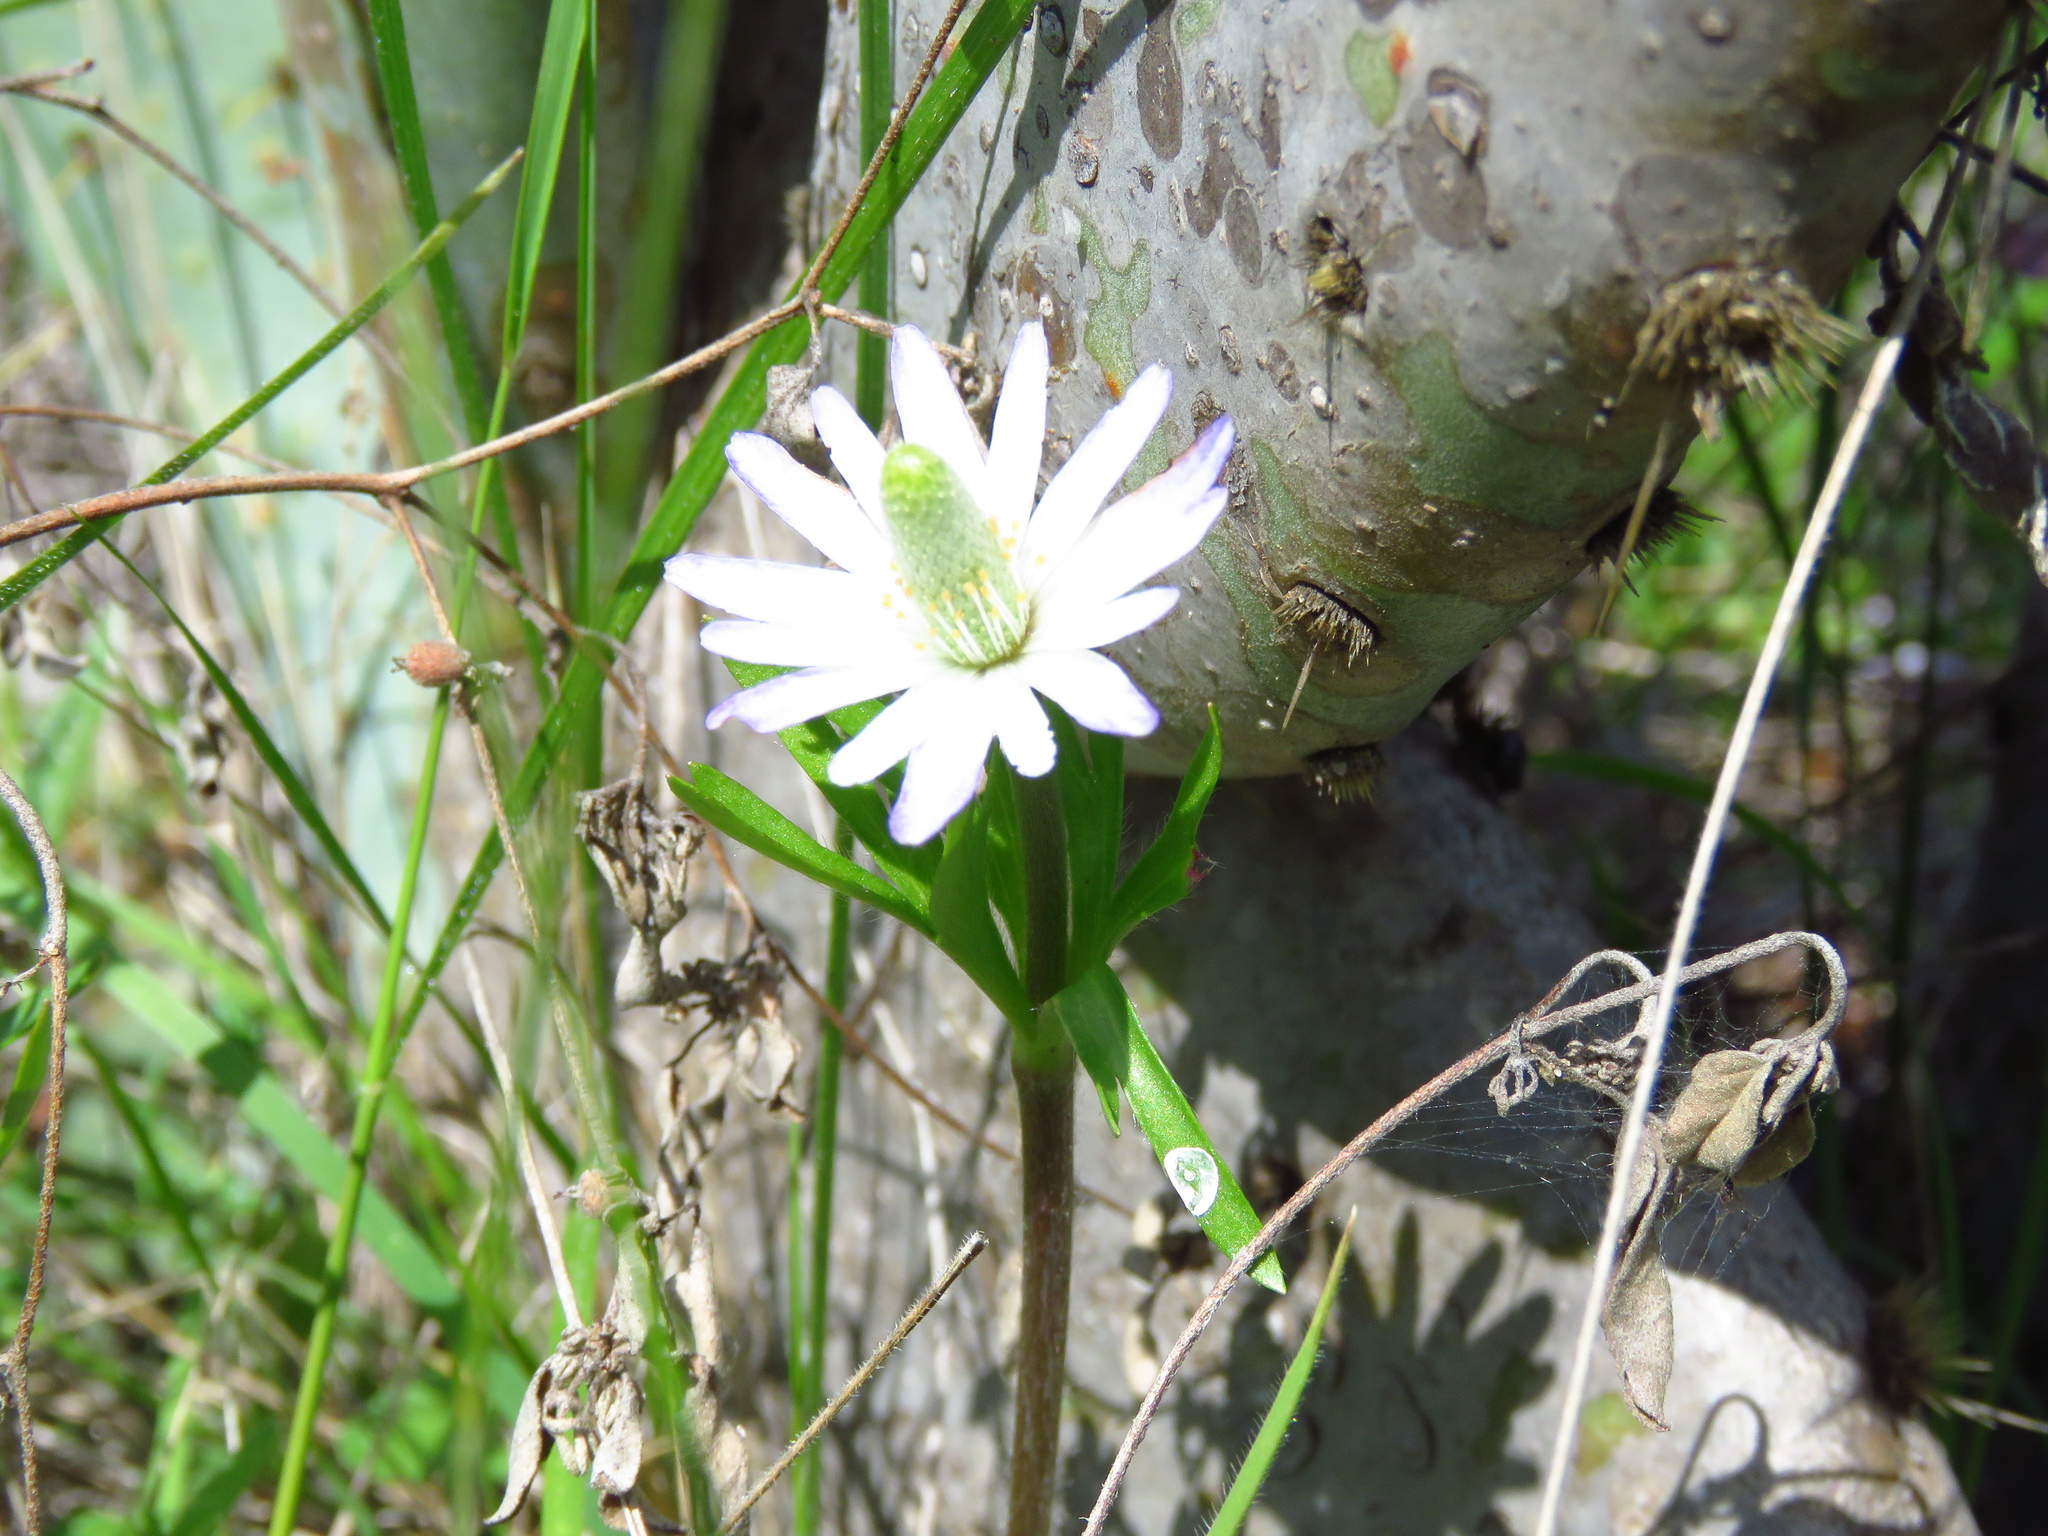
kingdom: Plantae
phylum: Tracheophyta
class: Magnoliopsida
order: Ranunculales
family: Ranunculaceae
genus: Anemone
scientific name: Anemone berlandieri
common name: Ten-petal anemone
